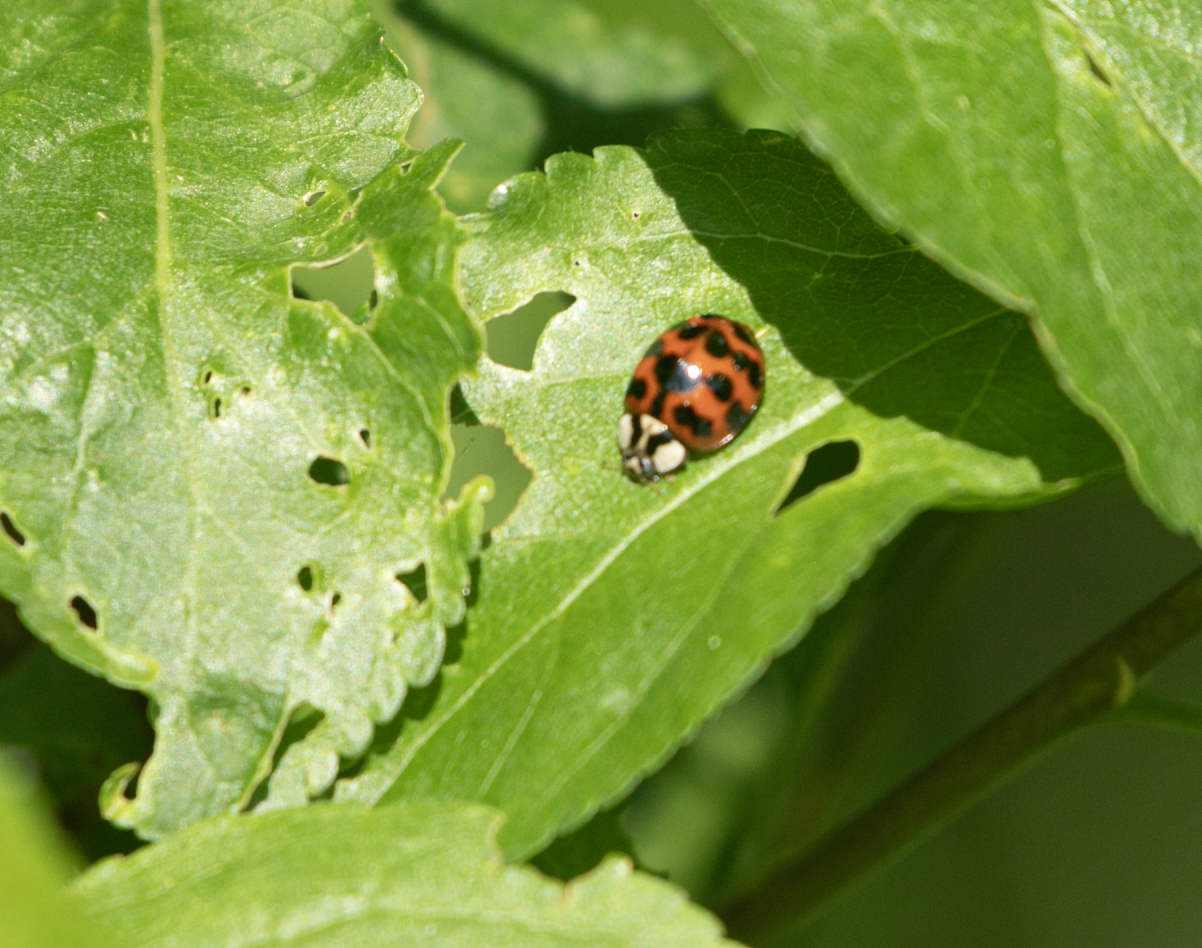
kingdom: Animalia
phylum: Arthropoda
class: Insecta
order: Coleoptera
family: Coccinellidae
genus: Harmonia
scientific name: Harmonia axyridis
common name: Harlequin ladybird
